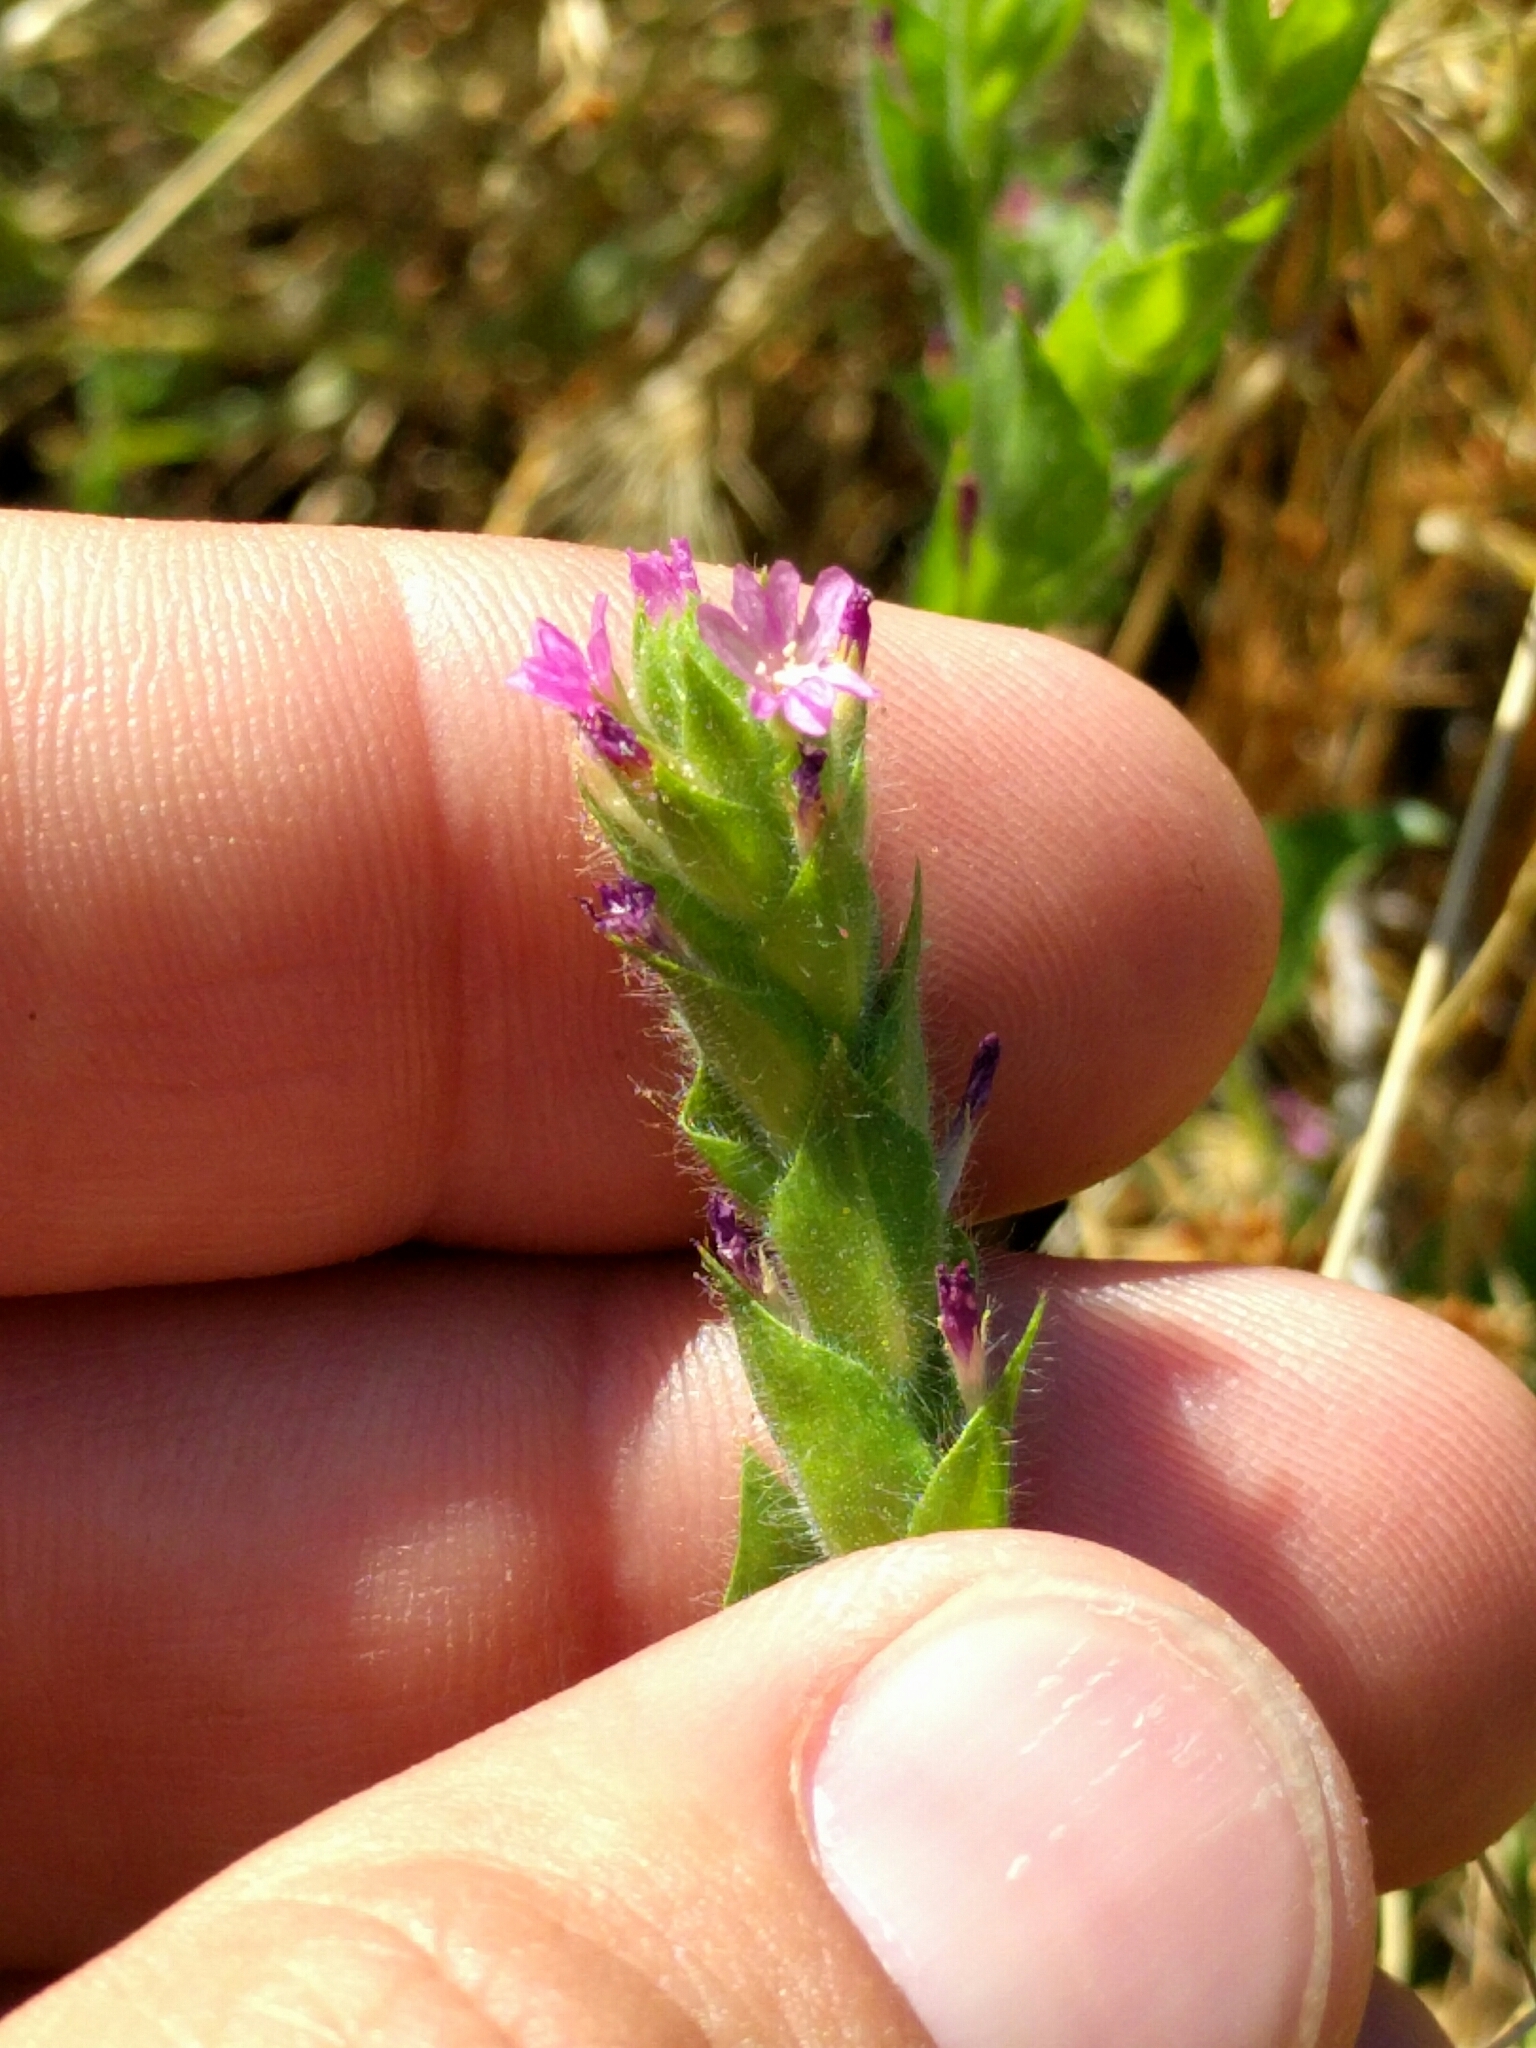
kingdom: Plantae
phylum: Tracheophyta
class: Magnoliopsida
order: Myrtales
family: Onagraceae
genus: Epilobium
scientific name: Epilobium densiflorum
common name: Dense spike-primrose
